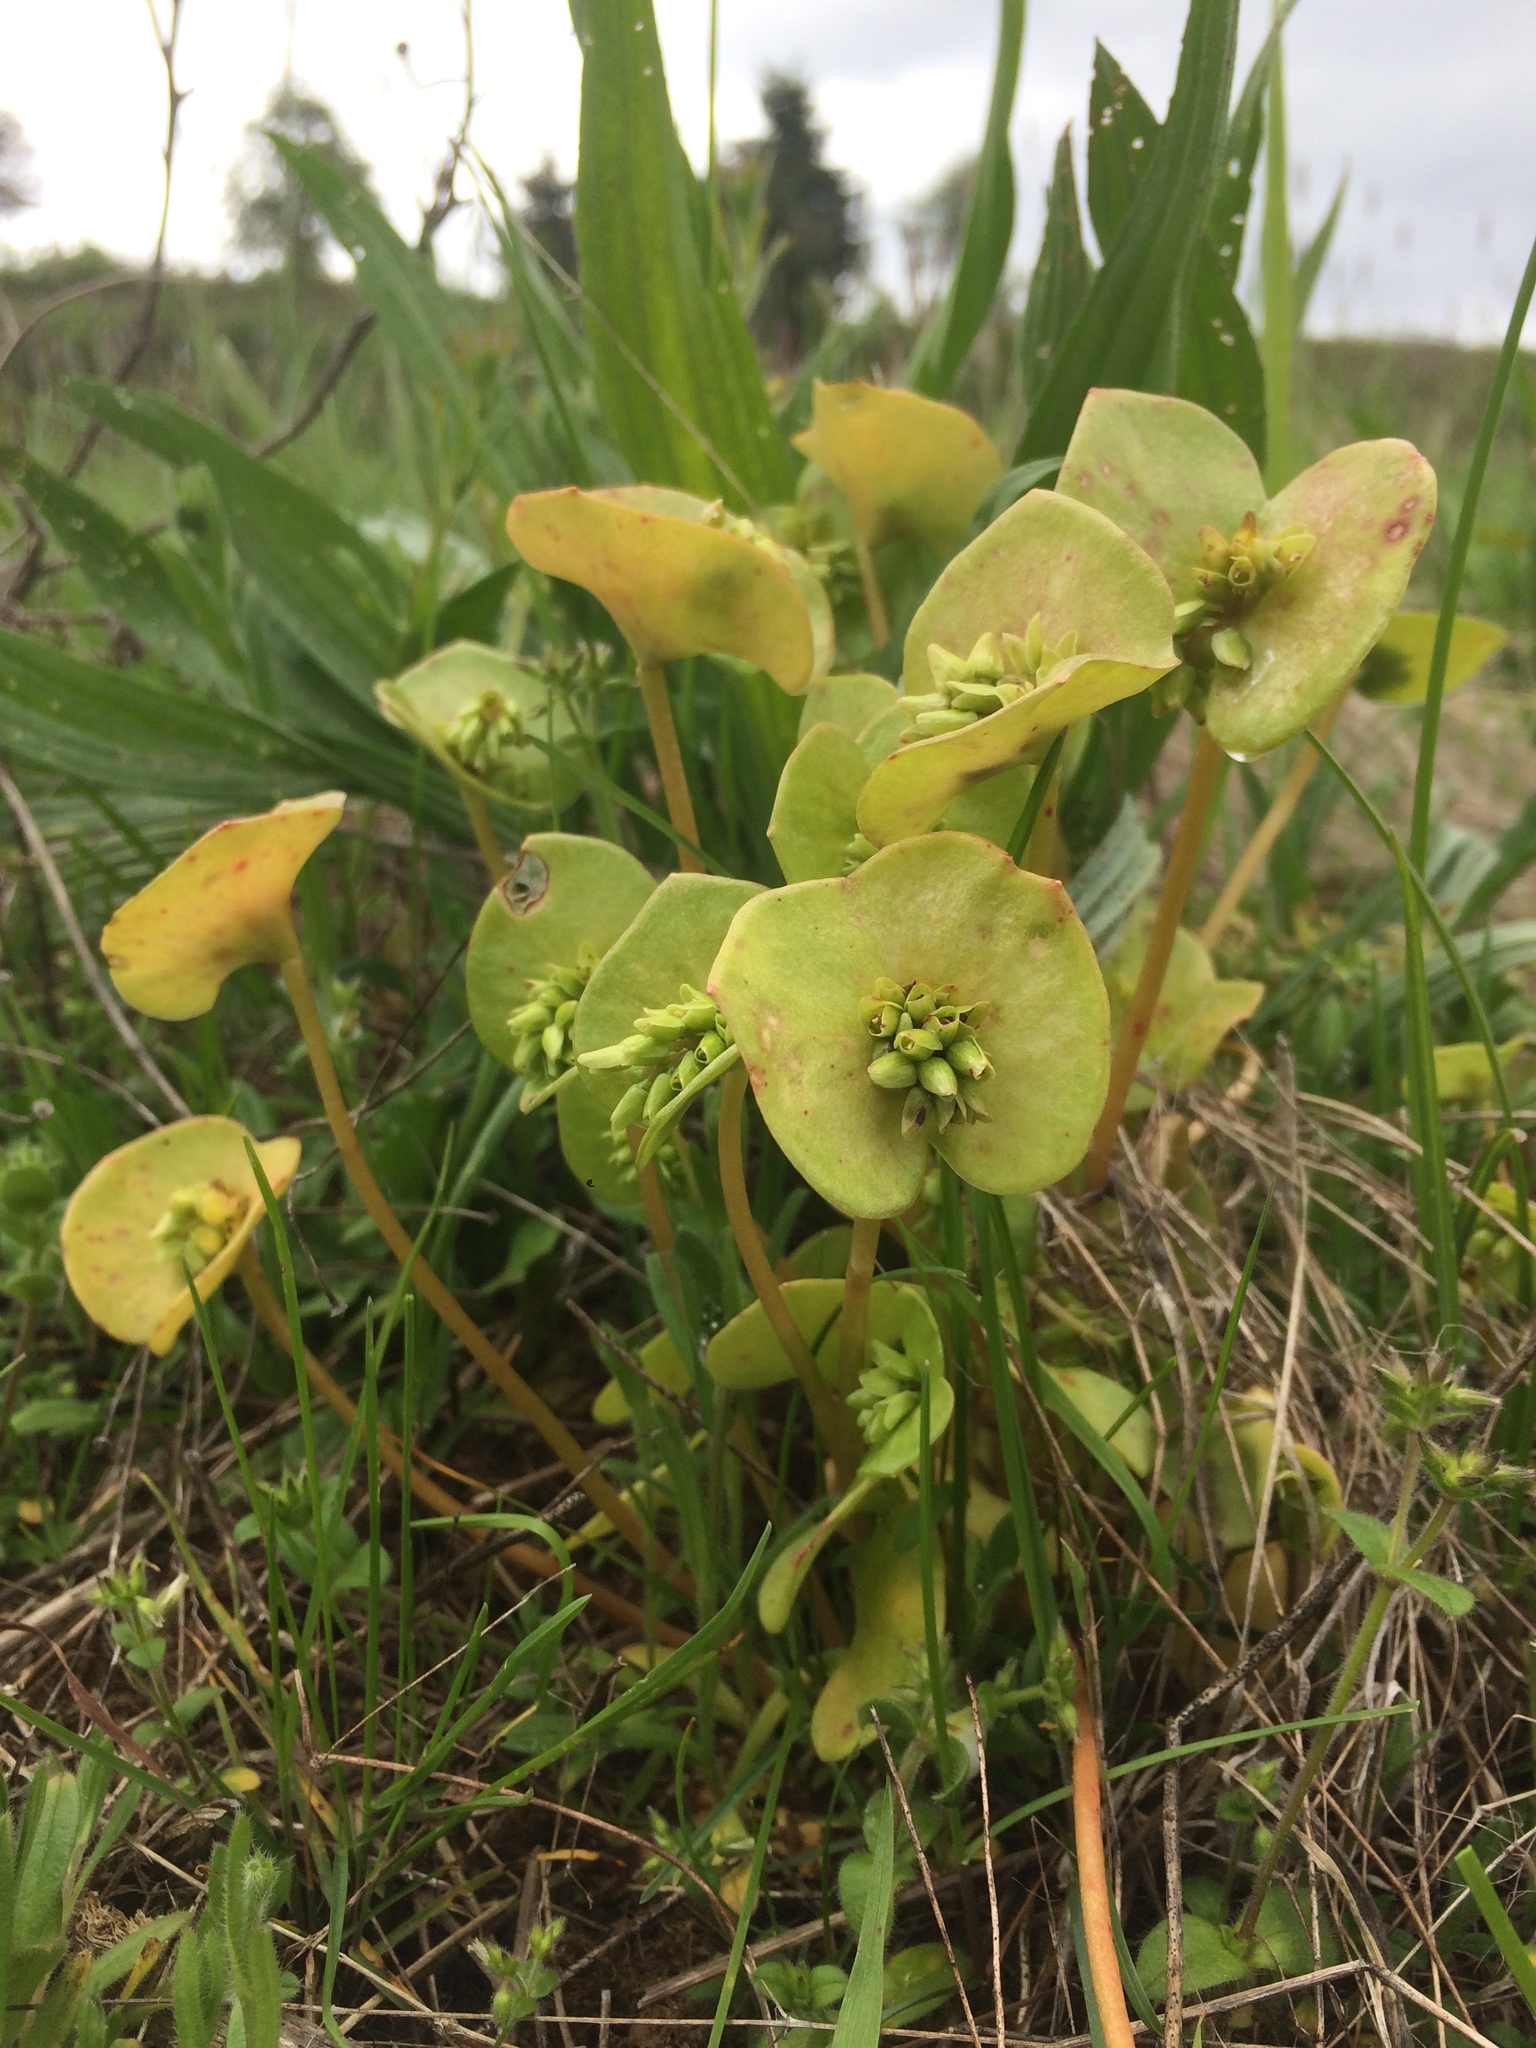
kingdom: Plantae
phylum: Tracheophyta
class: Magnoliopsida
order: Caryophyllales
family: Montiaceae
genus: Claytonia
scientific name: Claytonia perfoliata
